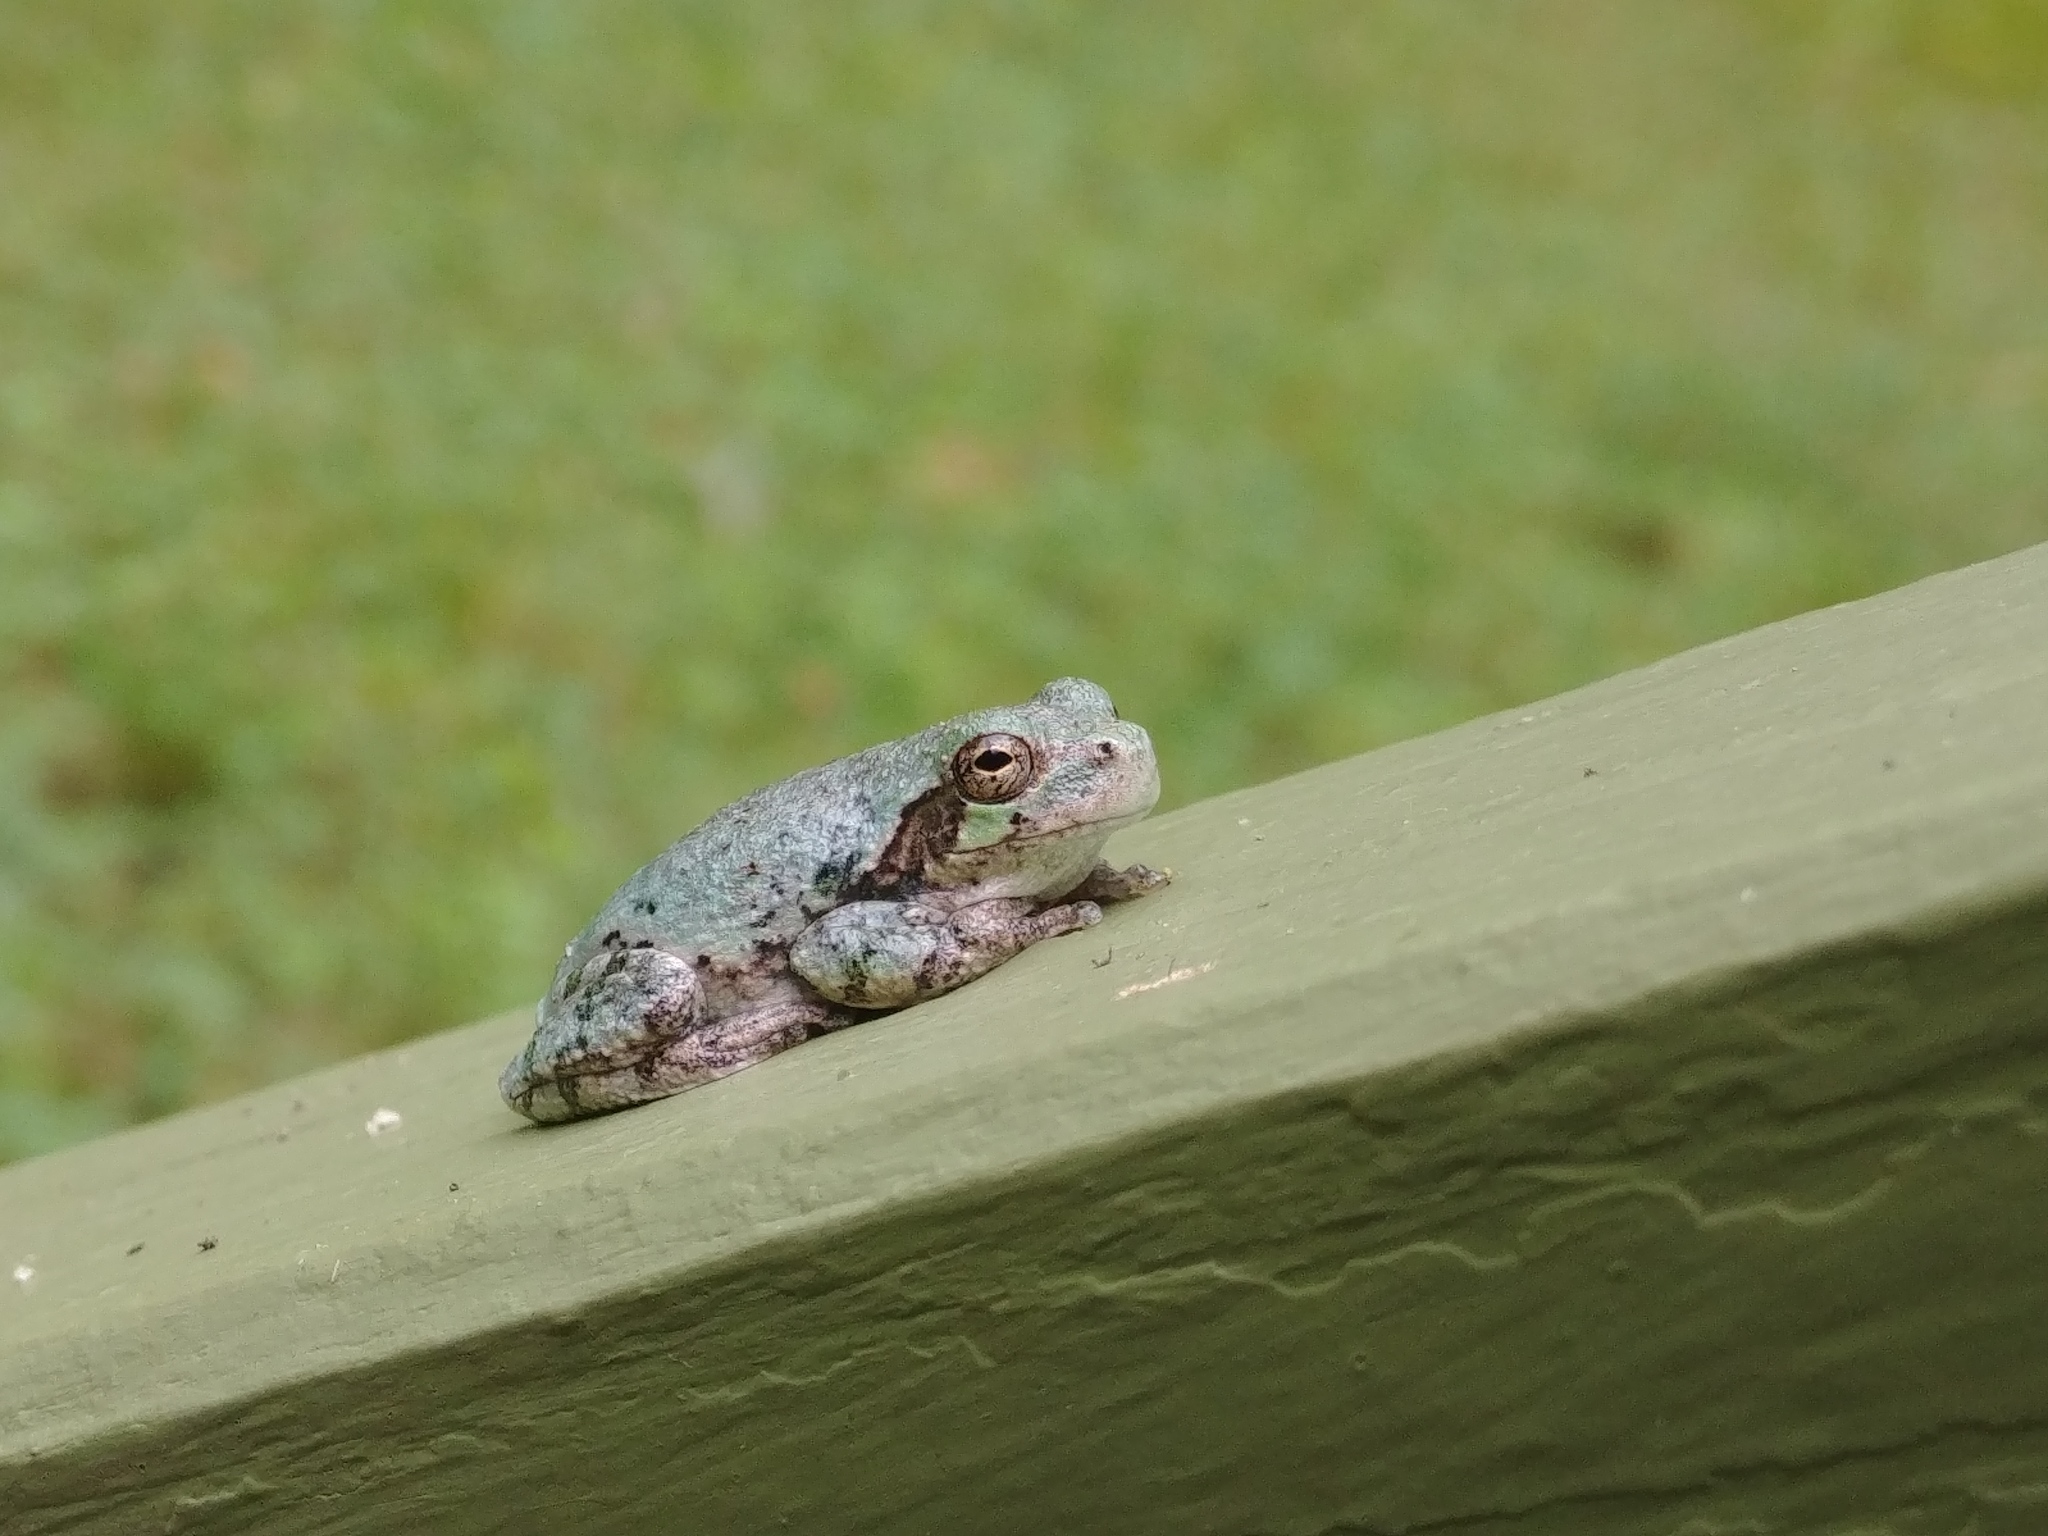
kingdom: Animalia
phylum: Chordata
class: Amphibia
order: Anura
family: Hylidae
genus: Dryophytes
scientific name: Dryophytes versicolor
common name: Gray treefrog
